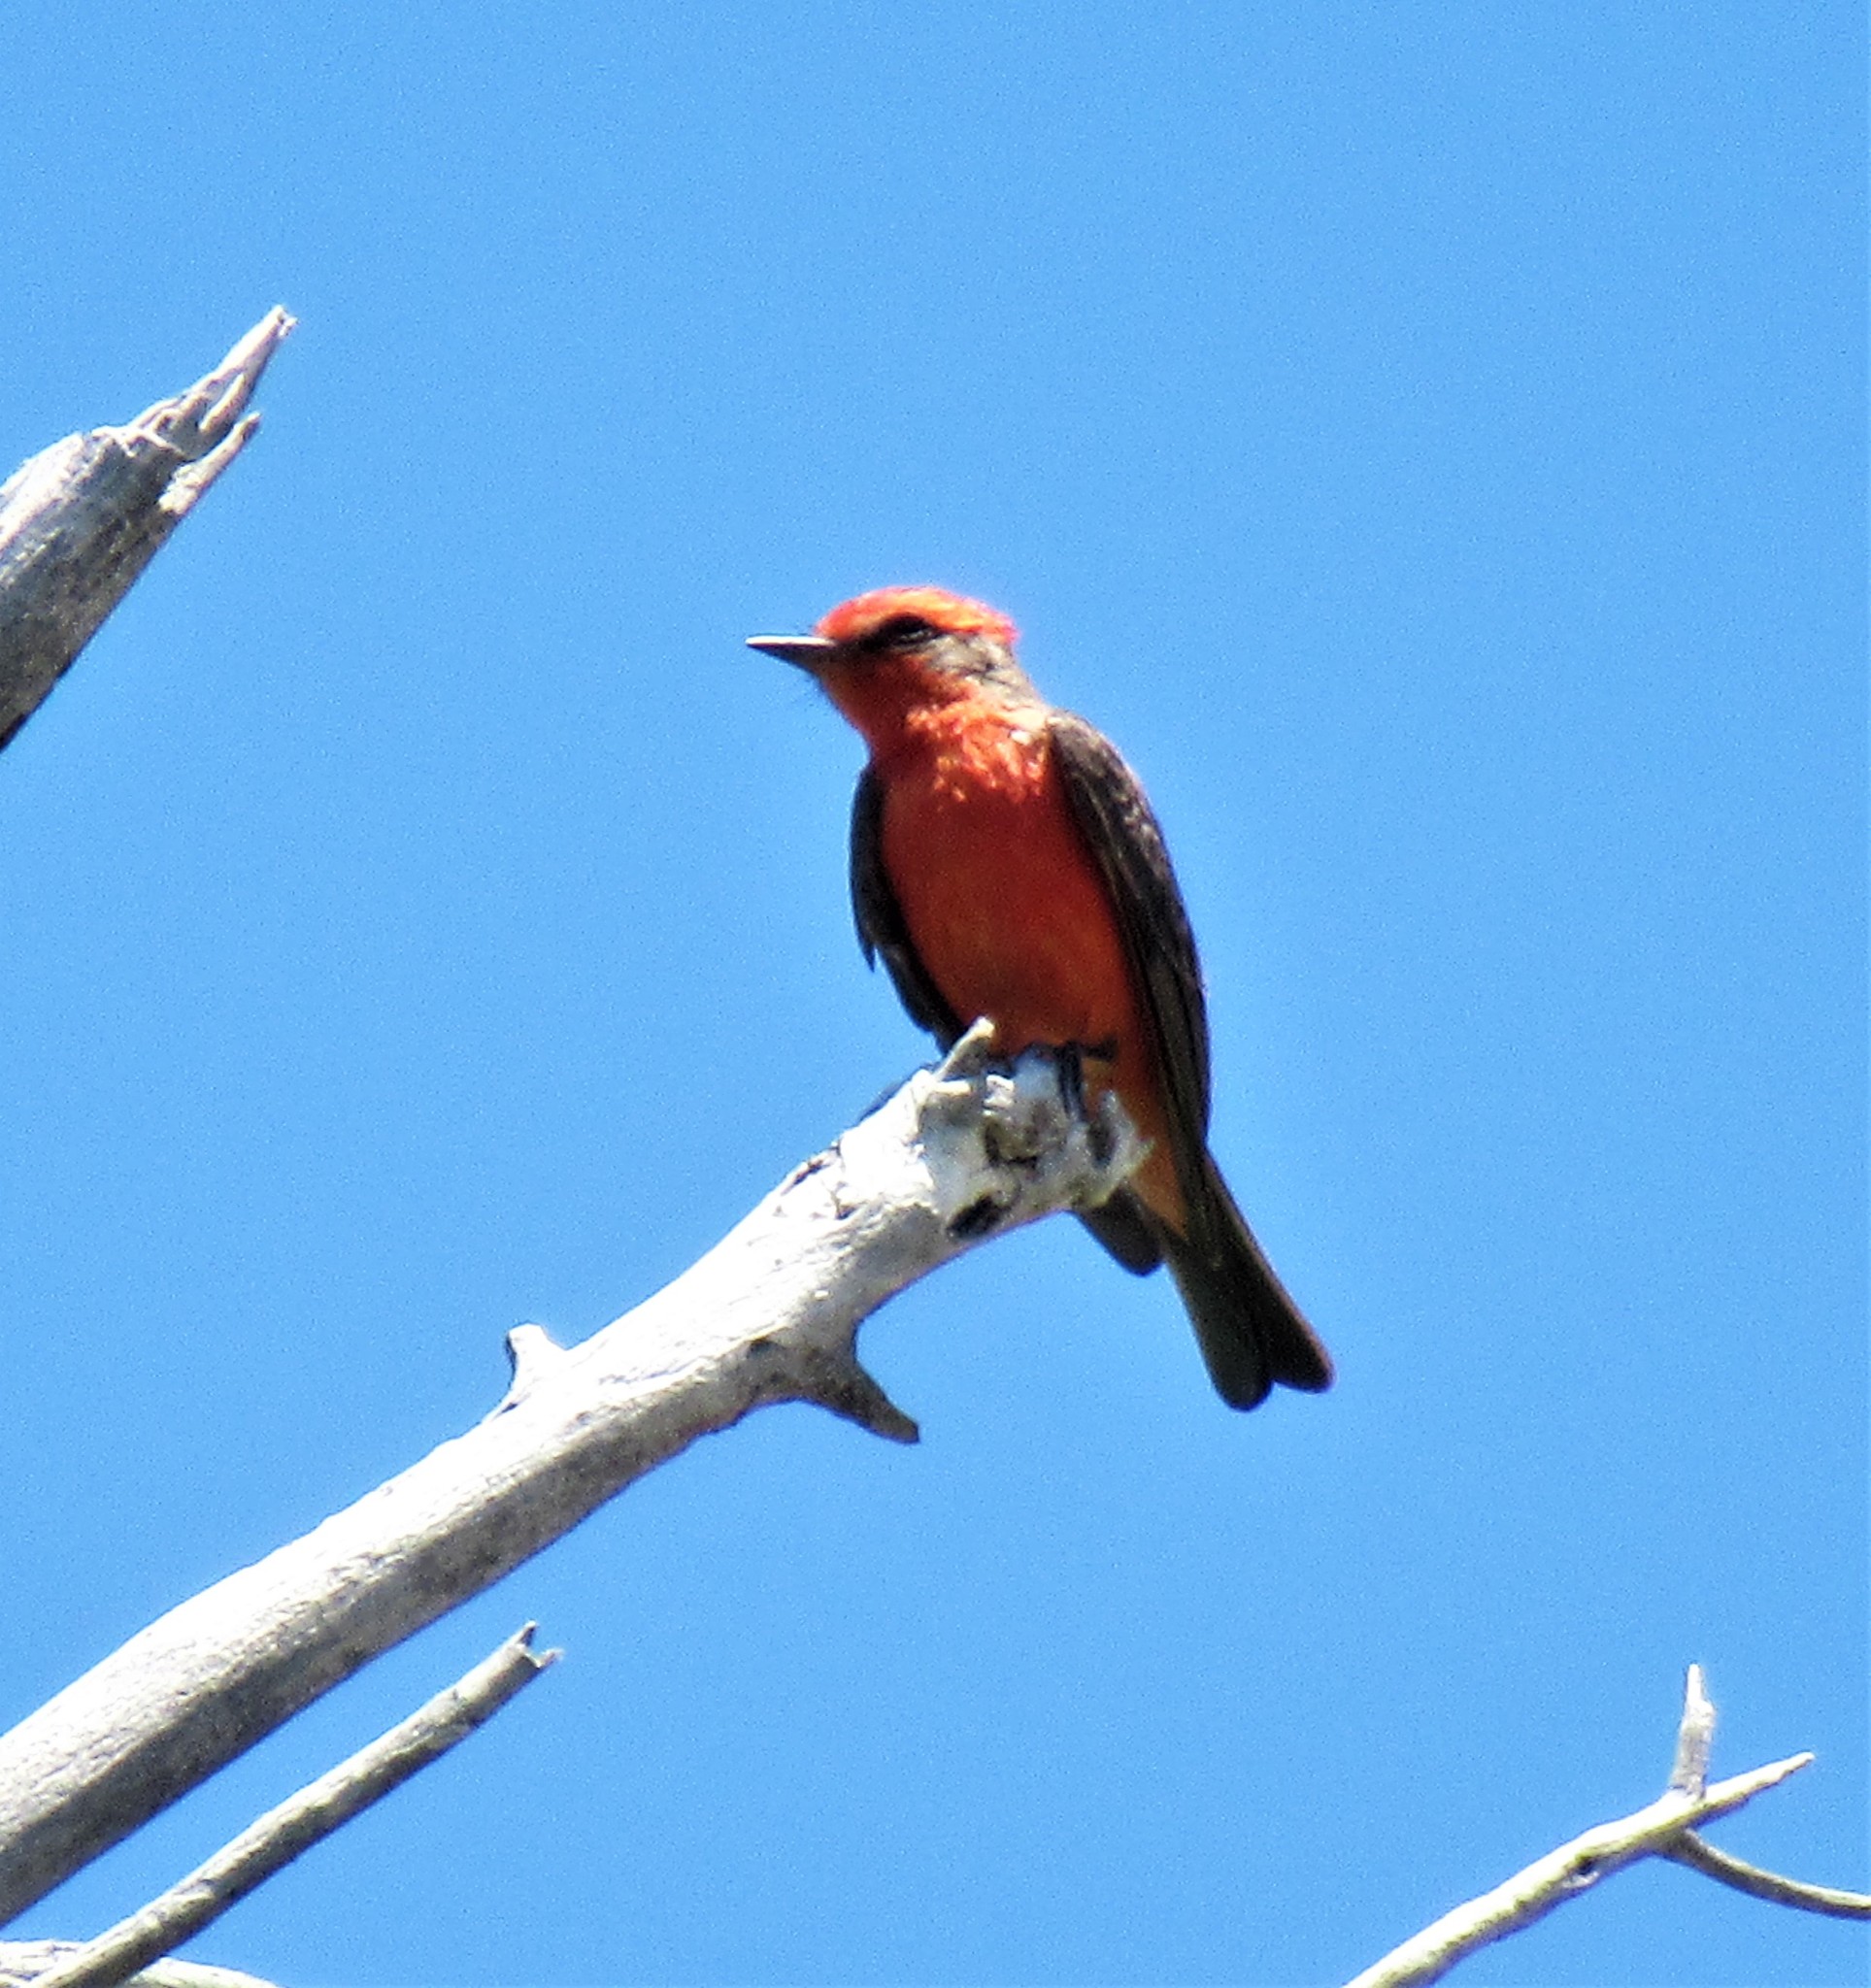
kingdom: Animalia
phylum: Chordata
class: Aves
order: Passeriformes
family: Tyrannidae
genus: Pyrocephalus
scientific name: Pyrocephalus rubinus
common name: Vermilion flycatcher
